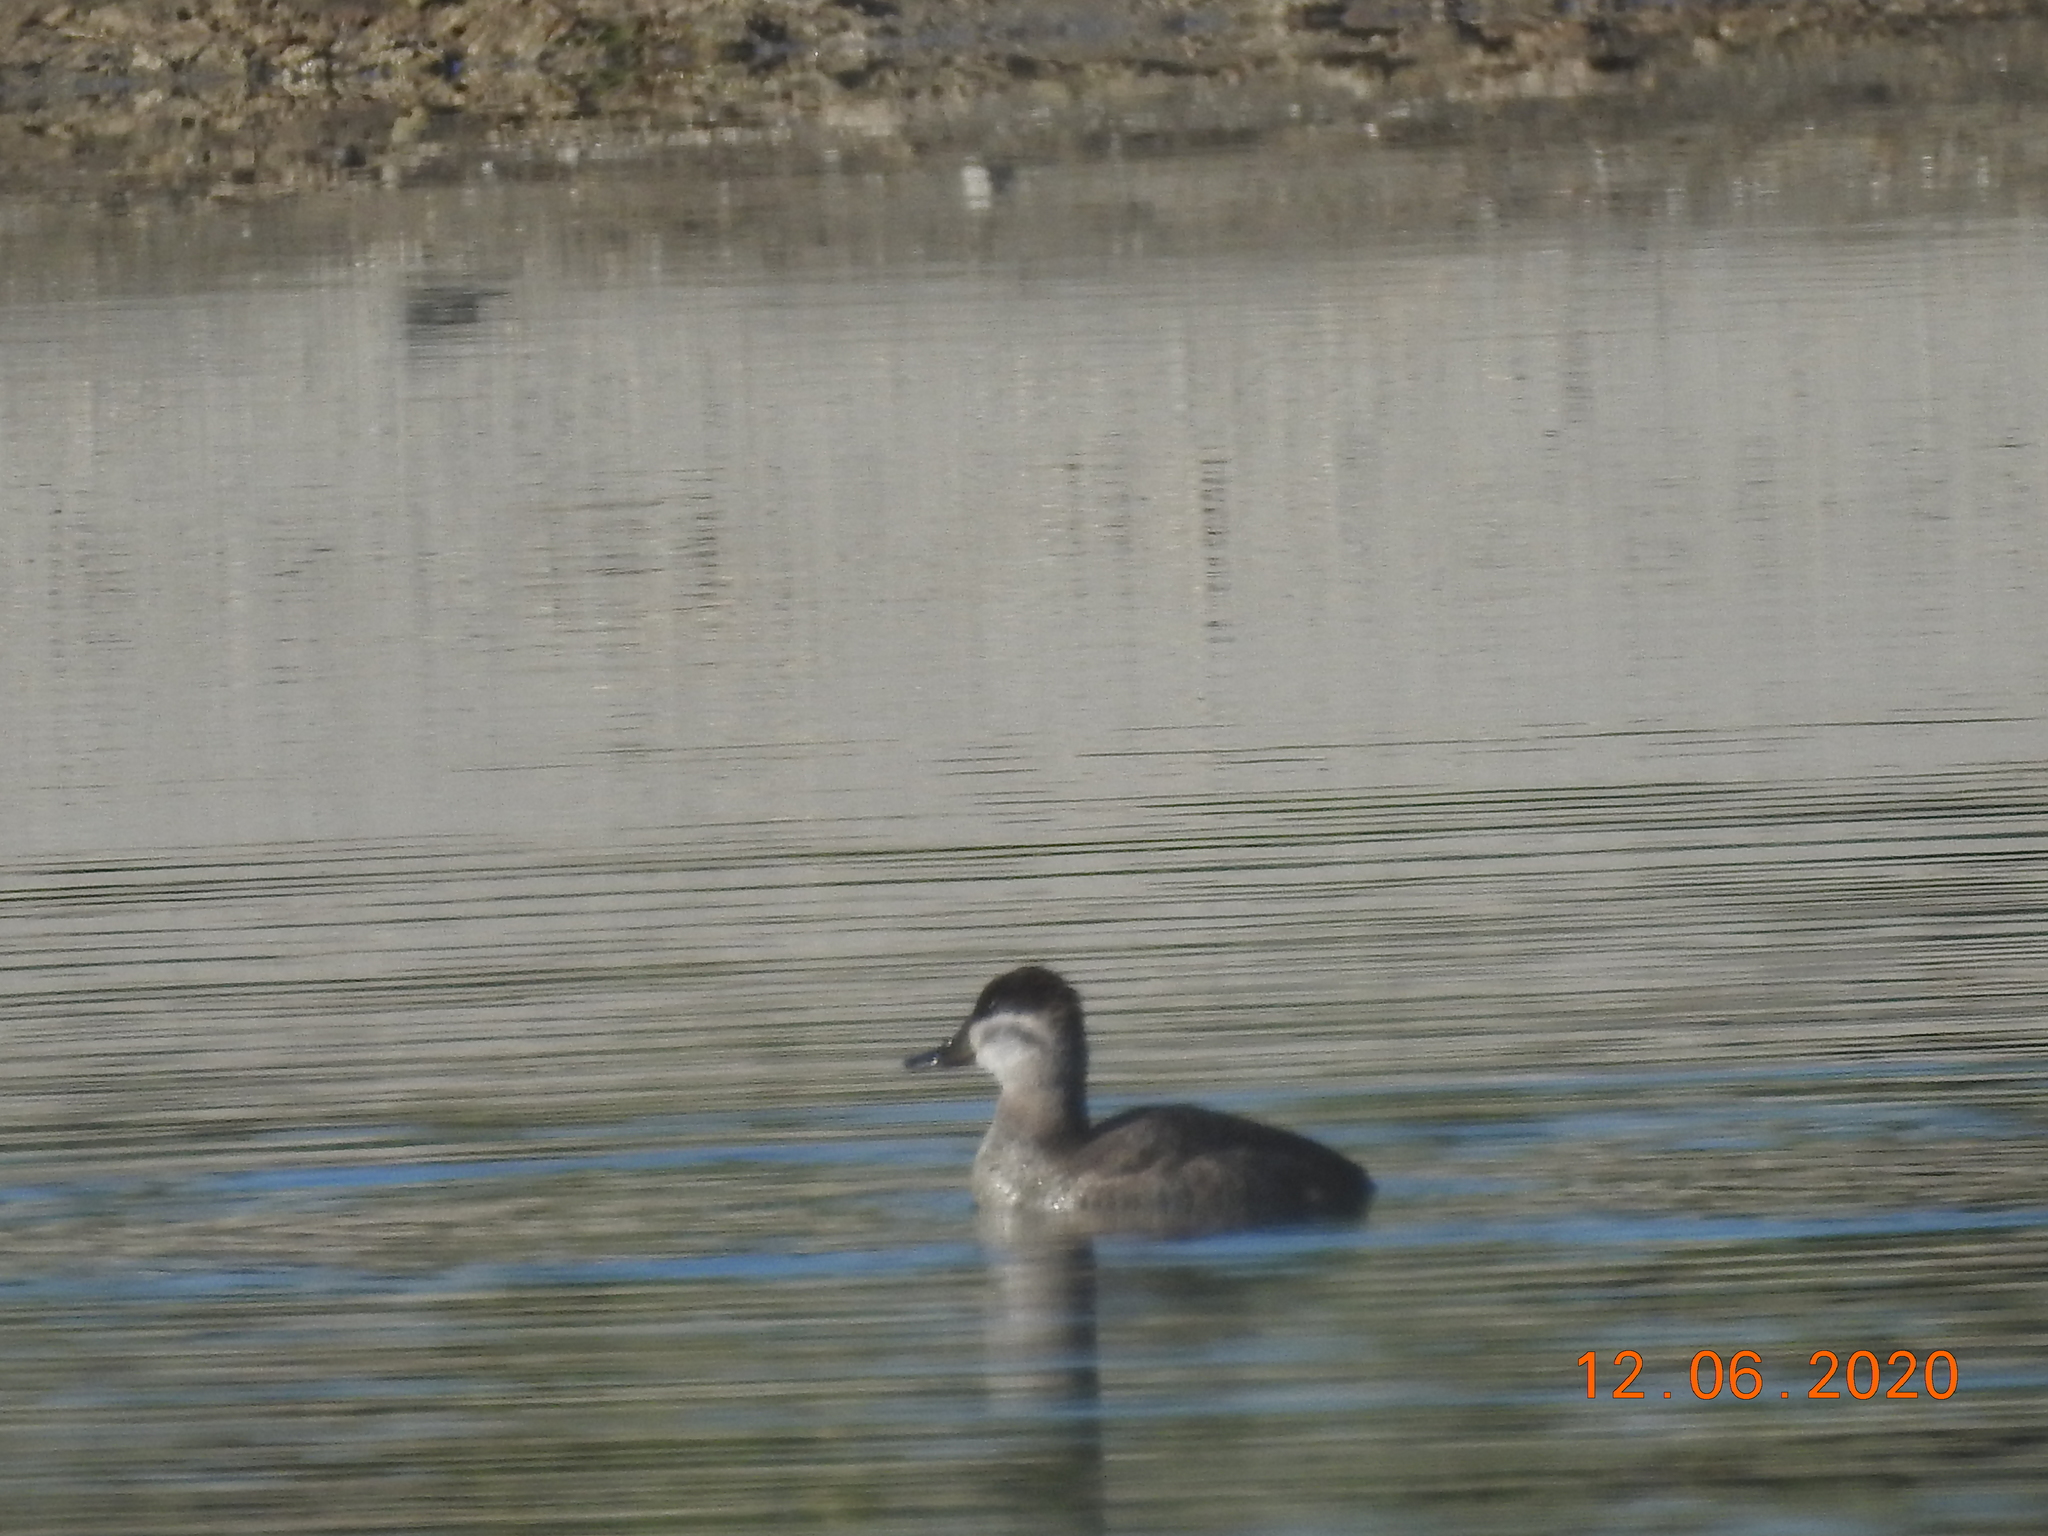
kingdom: Animalia
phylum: Chordata
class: Aves
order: Anseriformes
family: Anatidae
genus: Oxyura
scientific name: Oxyura jamaicensis
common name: Ruddy duck
